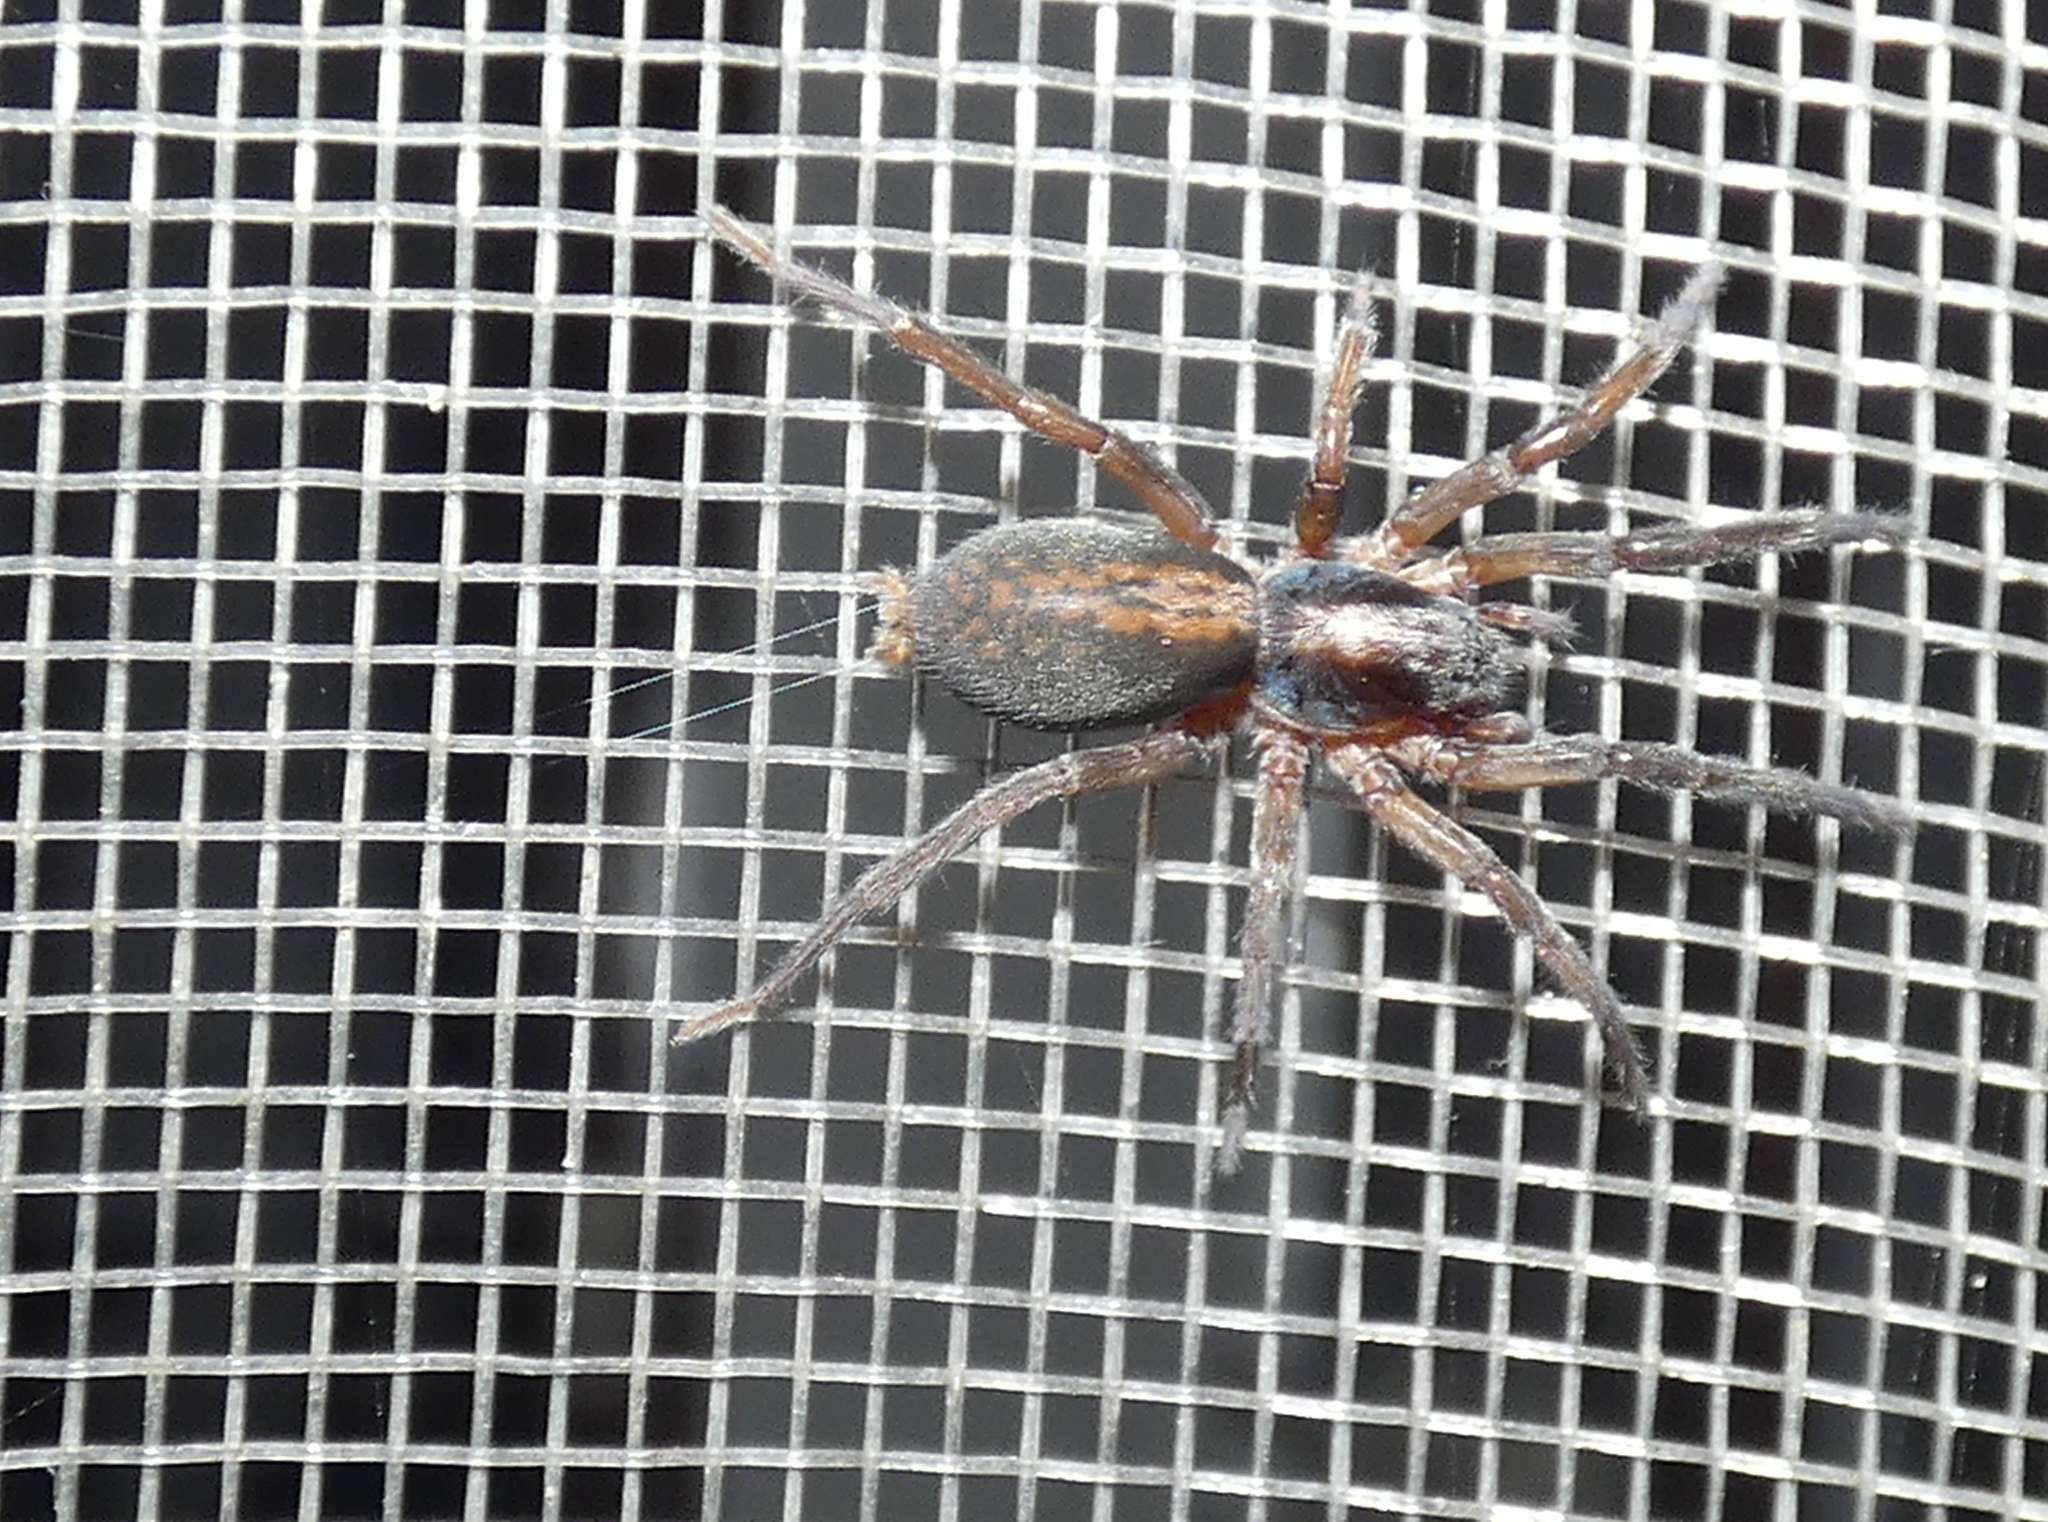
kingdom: Animalia
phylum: Arthropoda
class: Arachnida
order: Araneae
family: Miturgidae
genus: Teminius
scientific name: Teminius insularis
